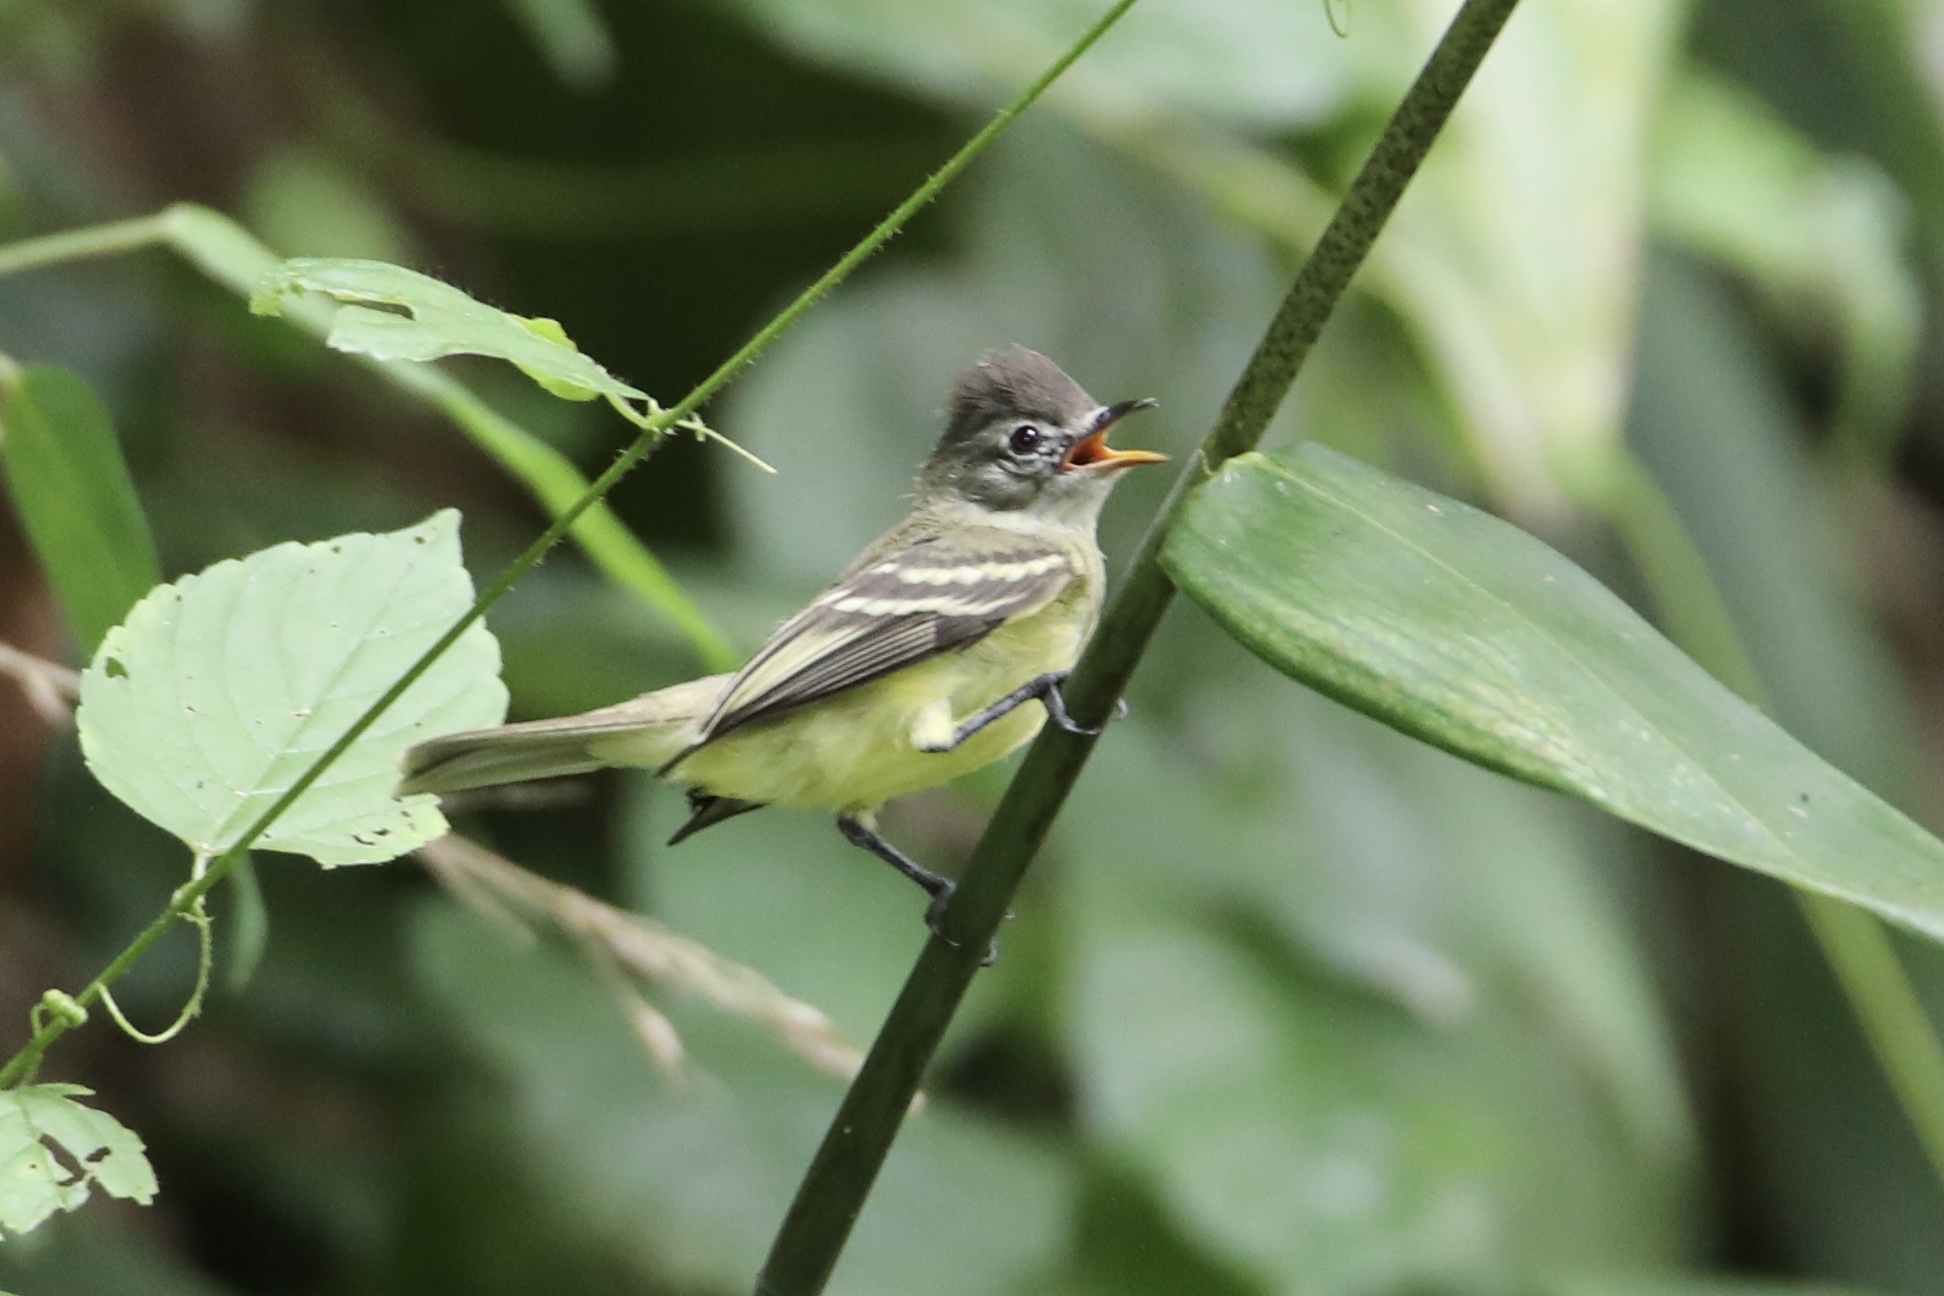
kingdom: Animalia
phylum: Chordata
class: Aves
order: Passeriformes
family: Tyrannidae
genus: Camptostoma
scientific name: Camptostoma obsoletum
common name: Southern beardless-tyrannulet
